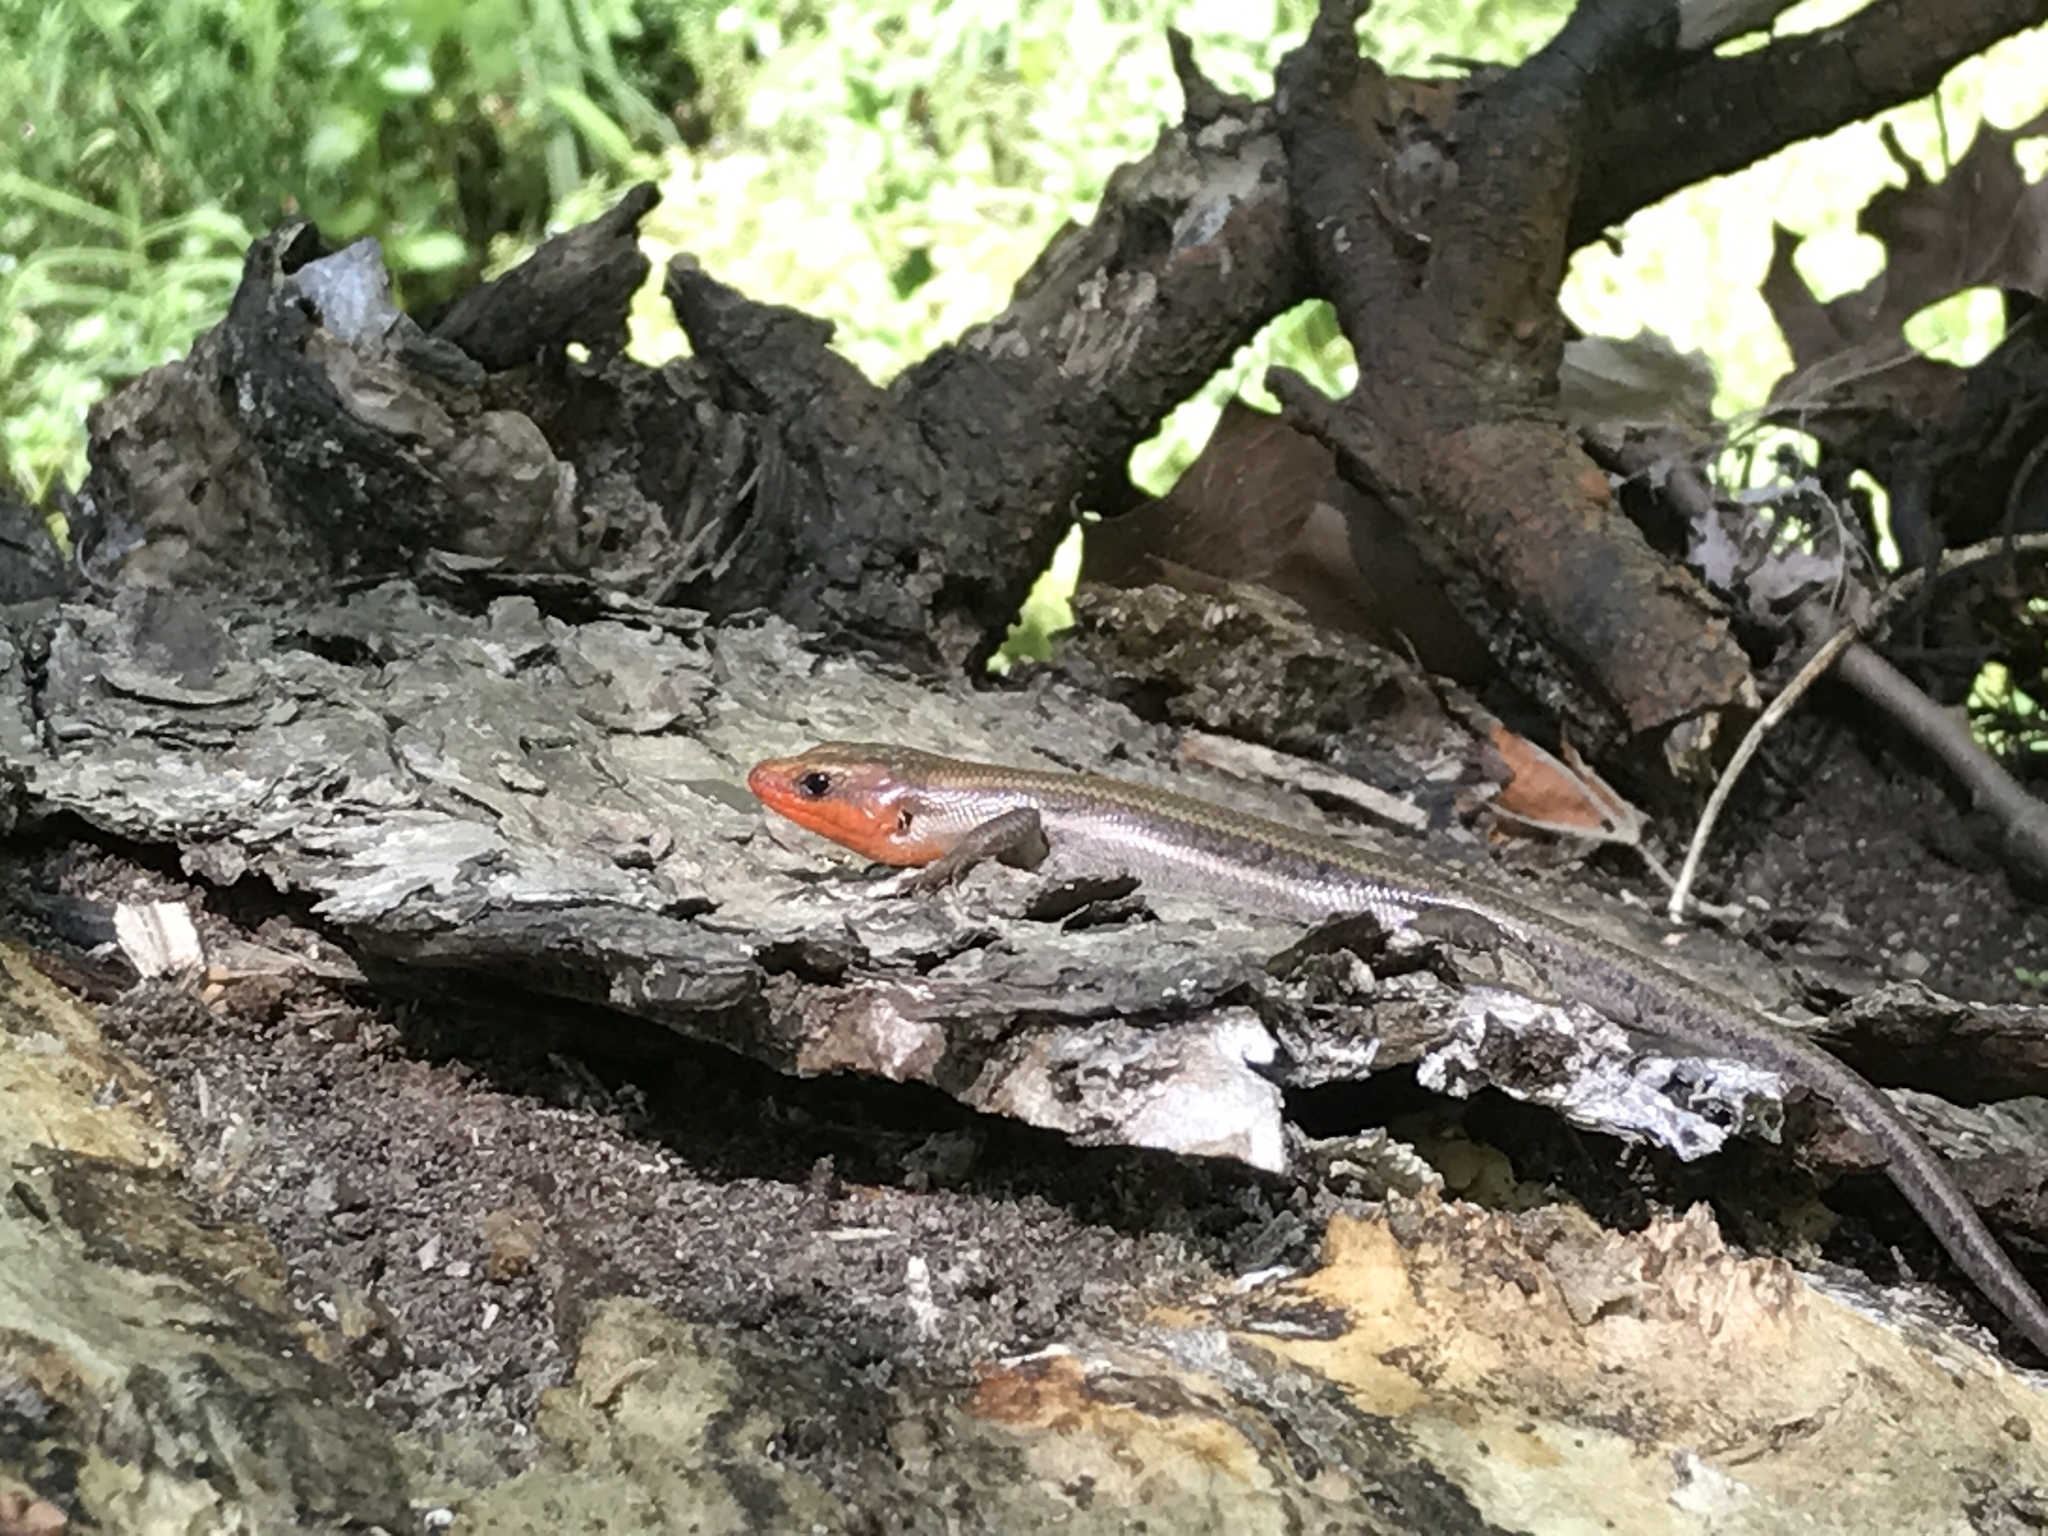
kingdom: Animalia
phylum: Chordata
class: Squamata
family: Scincidae
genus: Plestiodon
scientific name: Plestiodon fasciatus
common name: Five-lined skink
